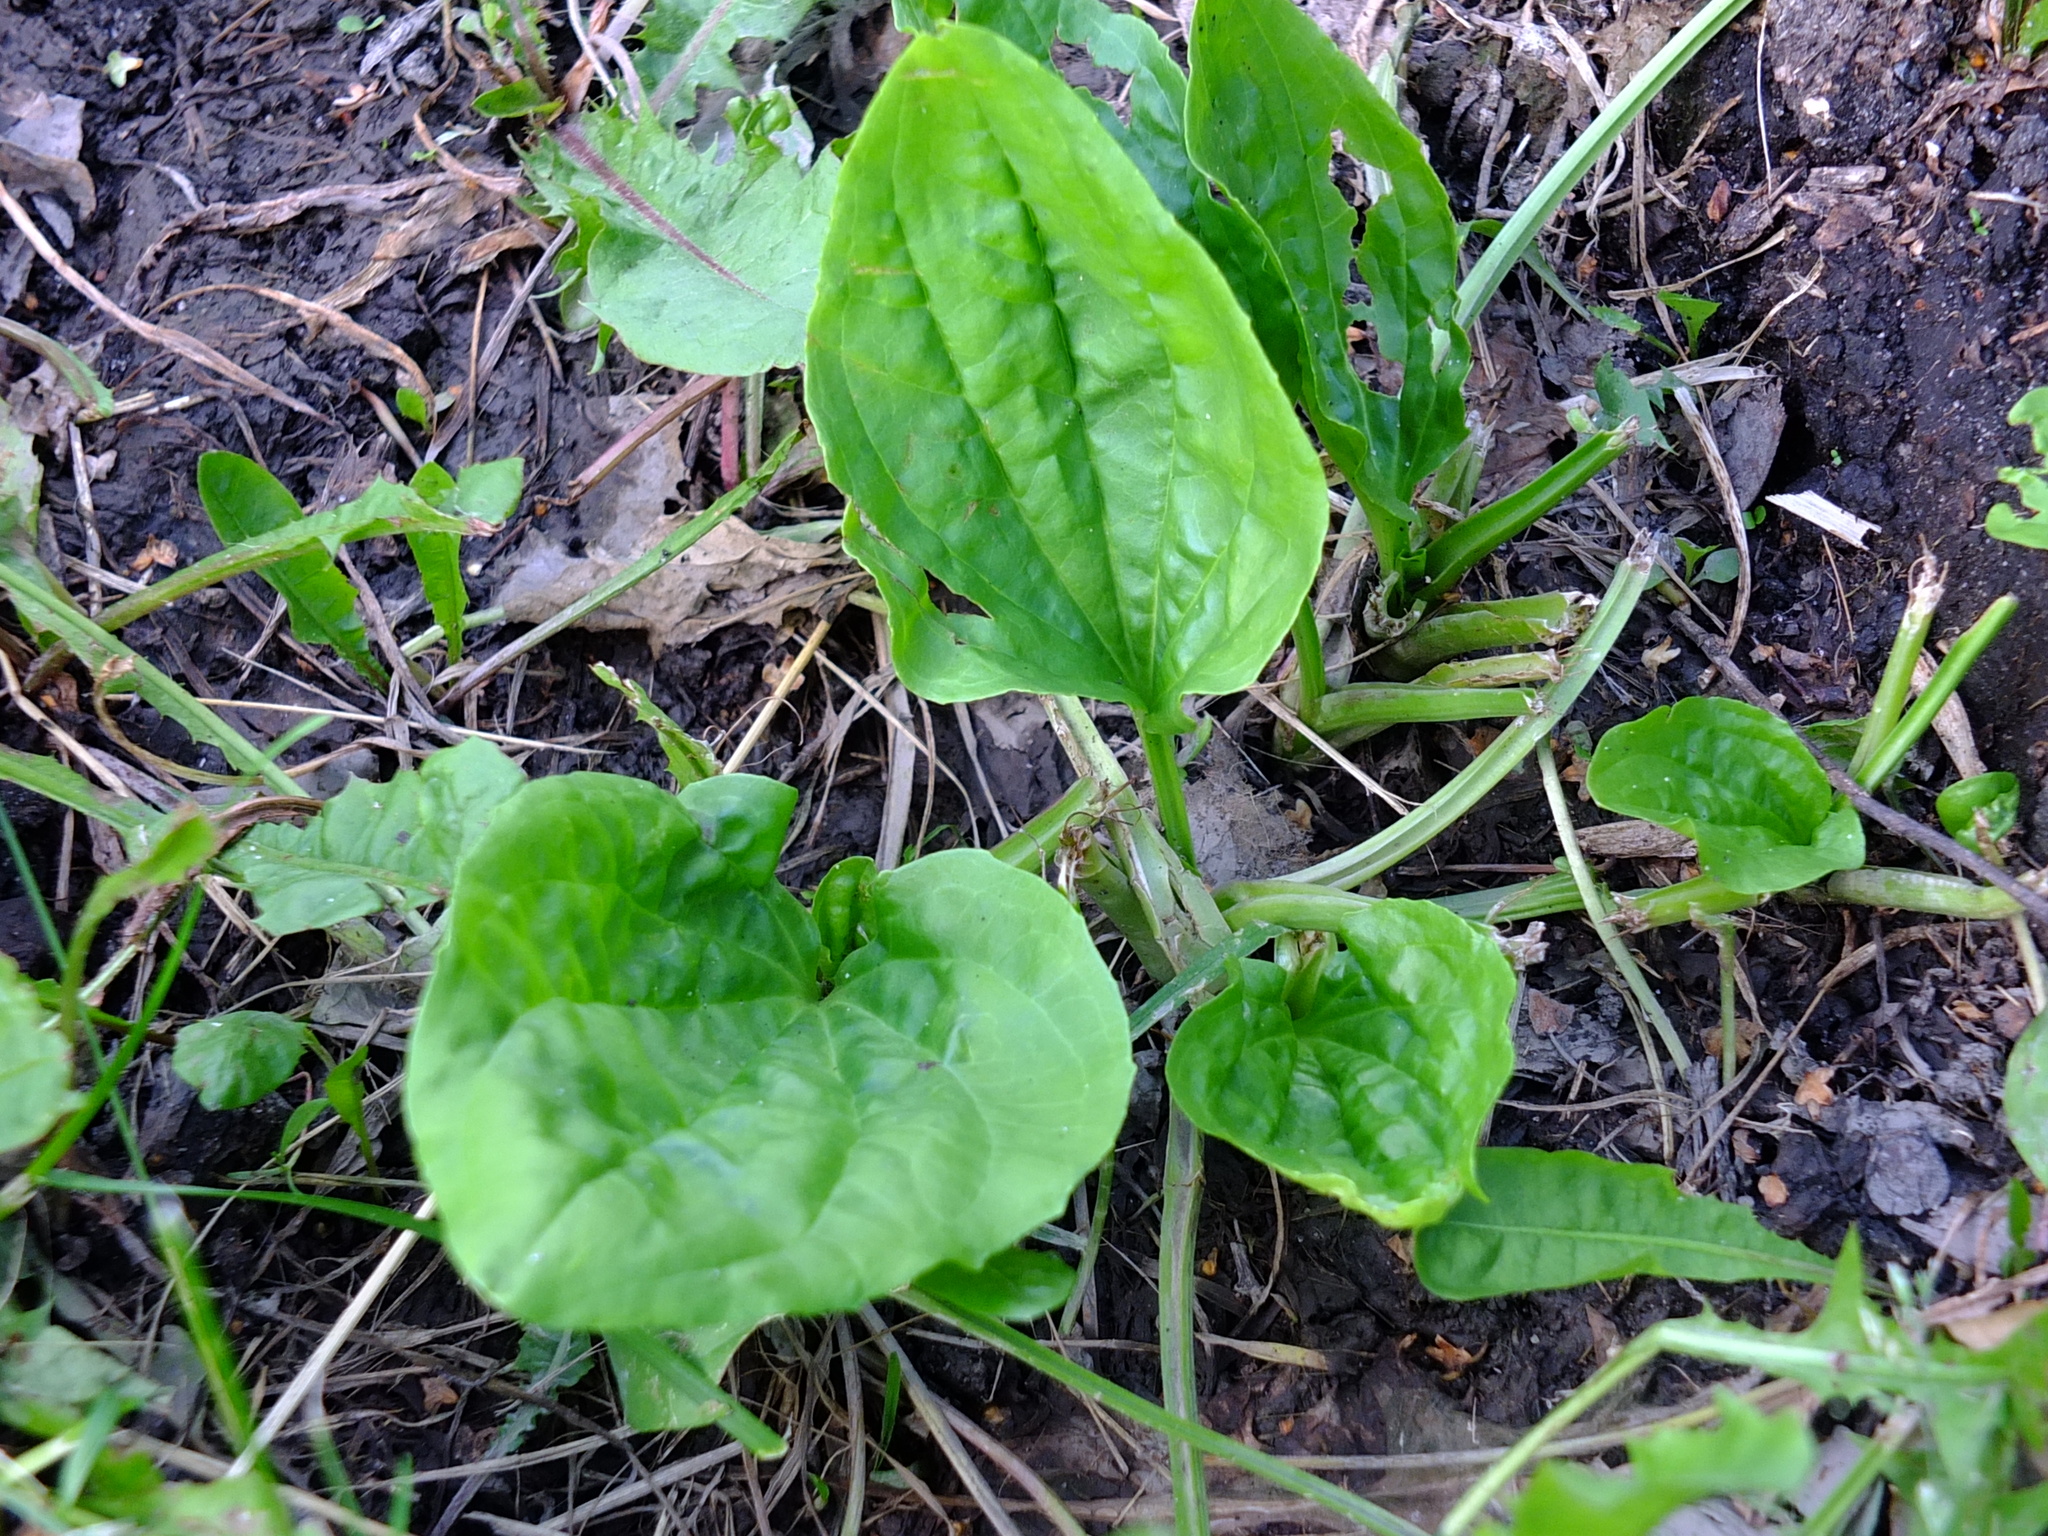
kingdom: Plantae
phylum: Tracheophyta
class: Magnoliopsida
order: Lamiales
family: Plantaginaceae
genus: Plantago
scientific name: Plantago major
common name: Common plantain
